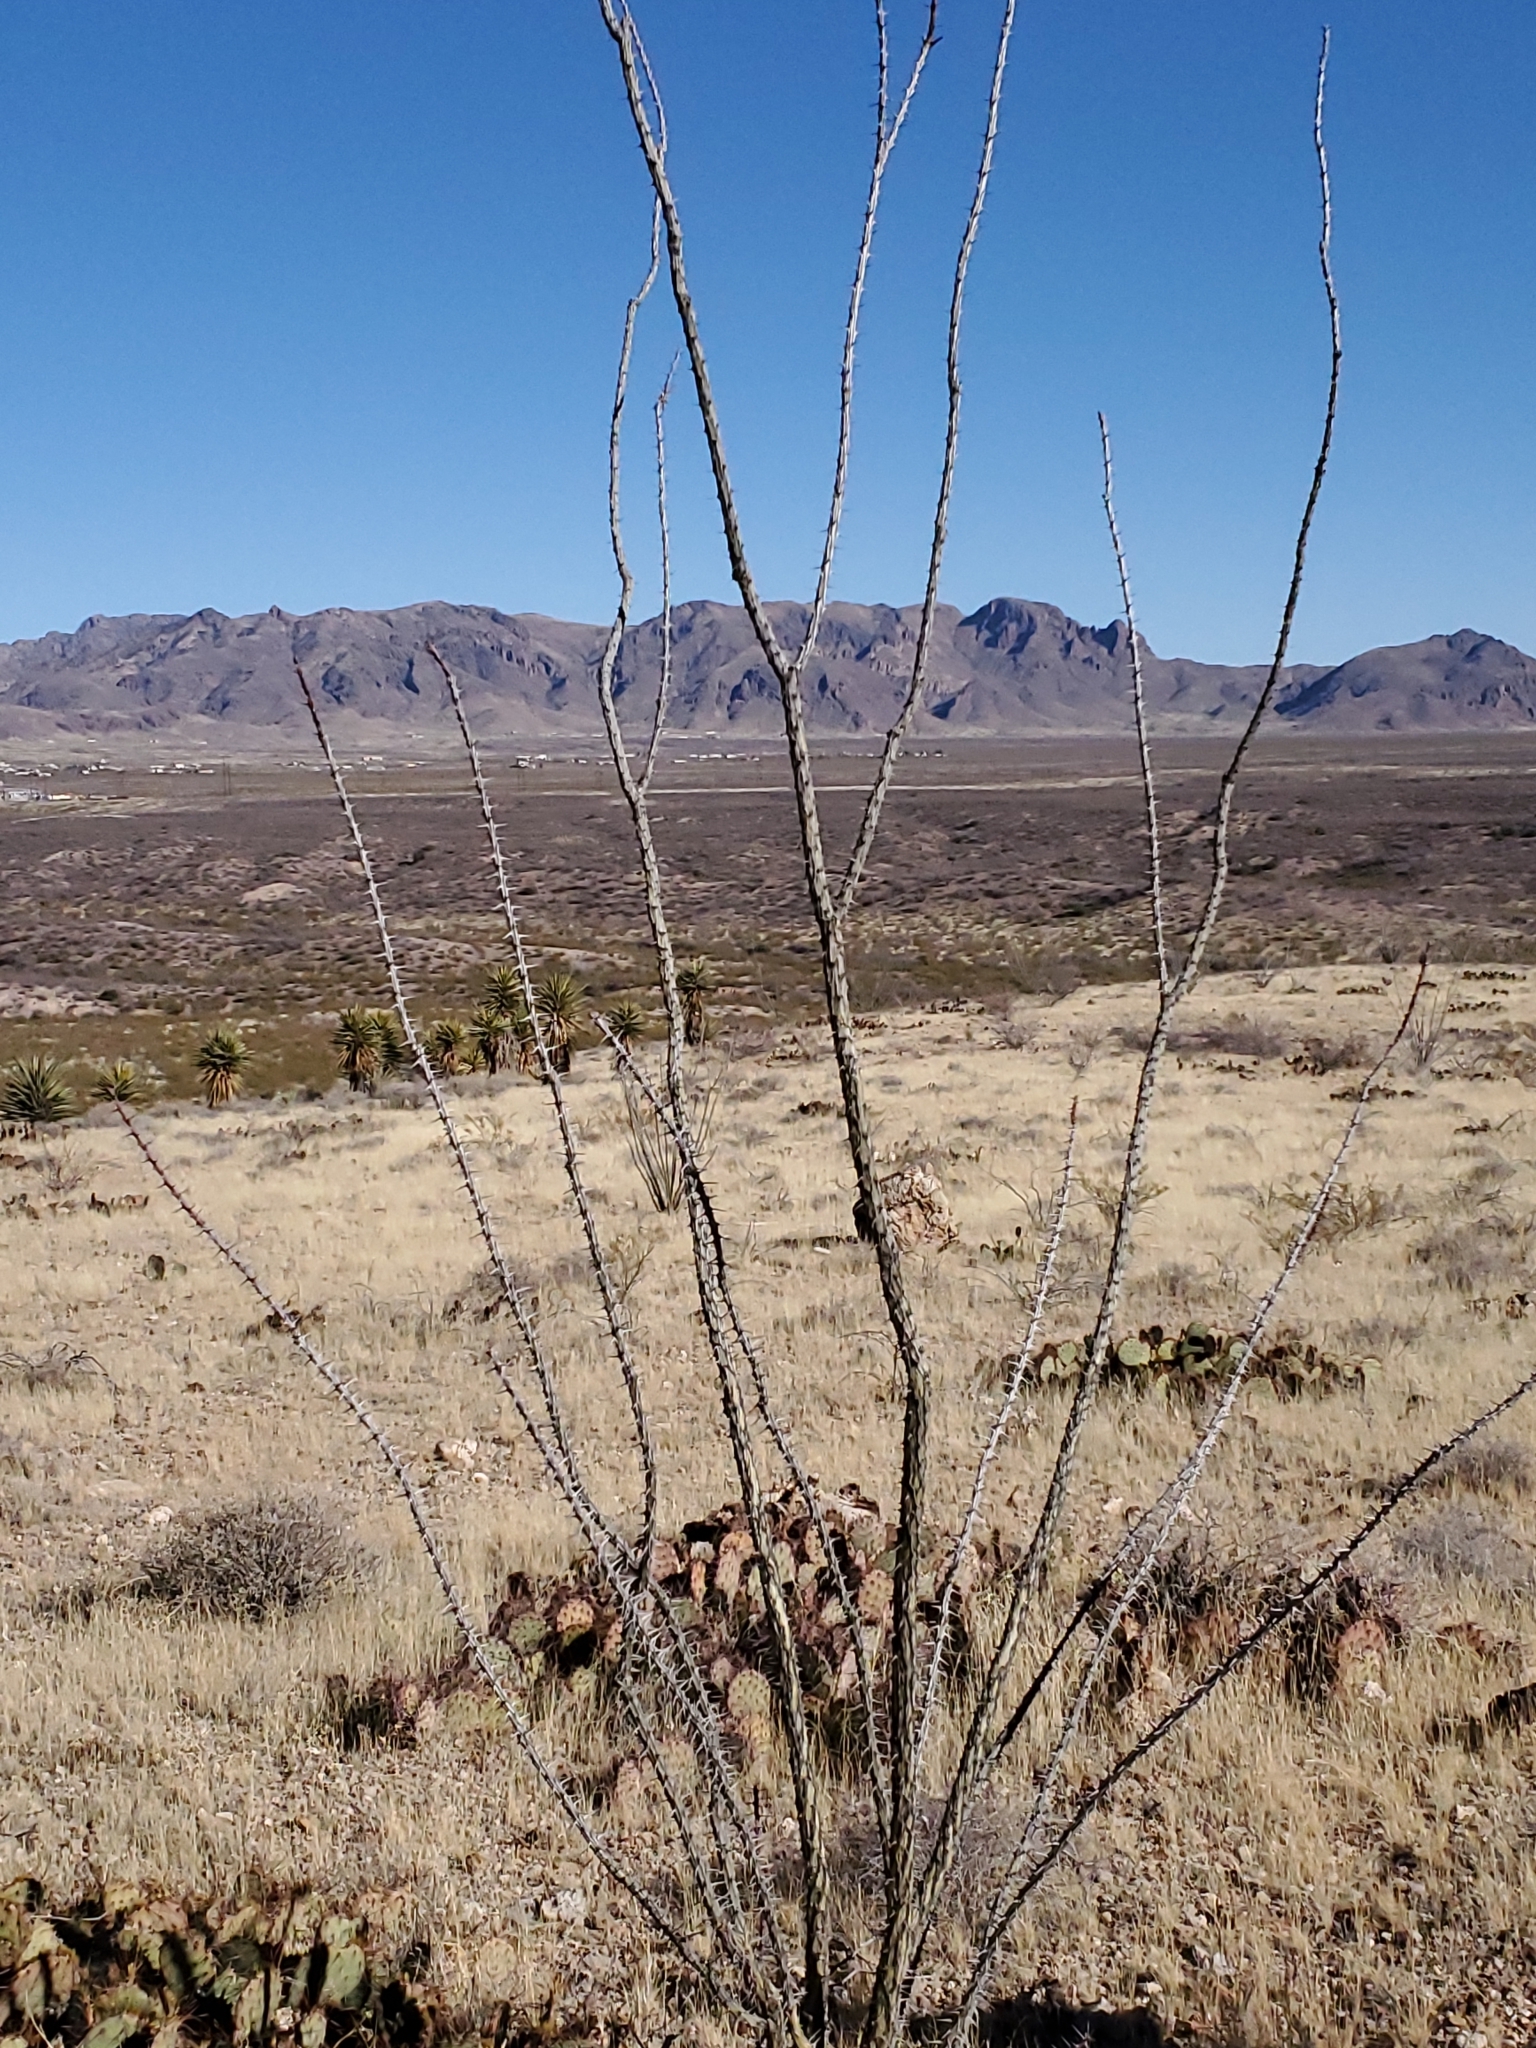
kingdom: Plantae
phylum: Tracheophyta
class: Magnoliopsida
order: Ericales
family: Fouquieriaceae
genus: Fouquieria
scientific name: Fouquieria splendens
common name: Vine-cactus
